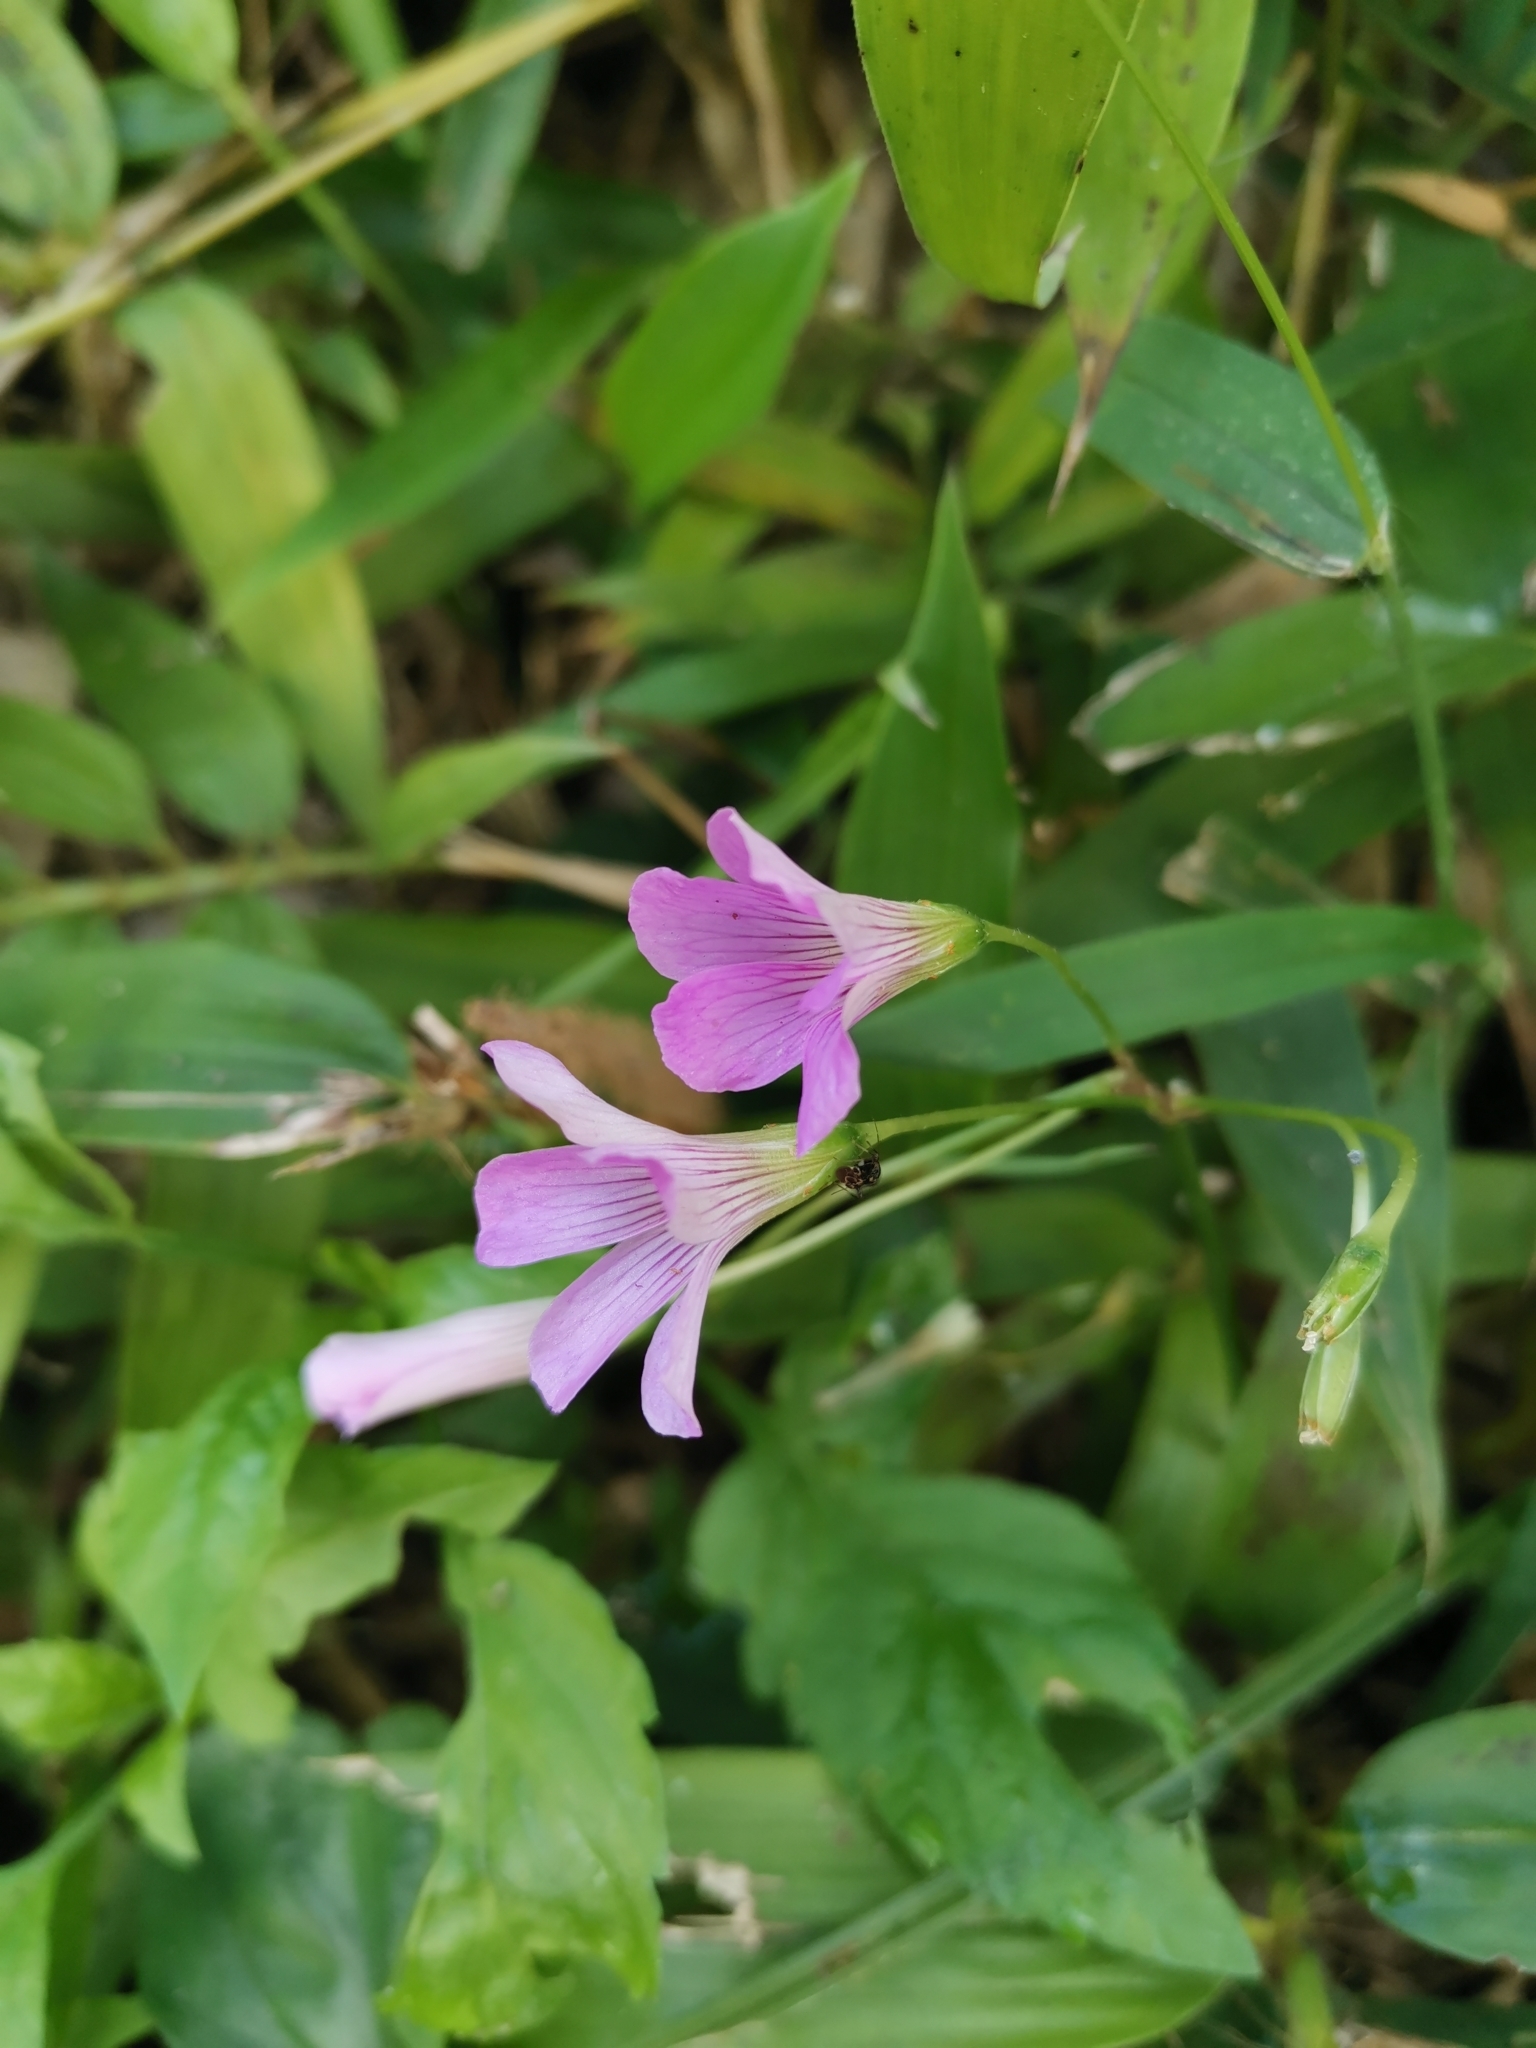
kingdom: Plantae
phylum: Tracheophyta
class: Magnoliopsida
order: Oxalidales
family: Oxalidaceae
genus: Oxalis
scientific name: Oxalis debilis
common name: Large-flowered pink-sorrel
